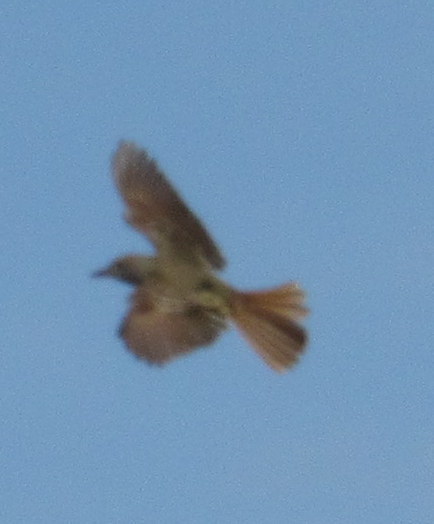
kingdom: Animalia
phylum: Chordata
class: Aves
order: Passeriformes
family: Tyrannidae
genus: Myiarchus
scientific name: Myiarchus crinitus
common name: Great crested flycatcher
